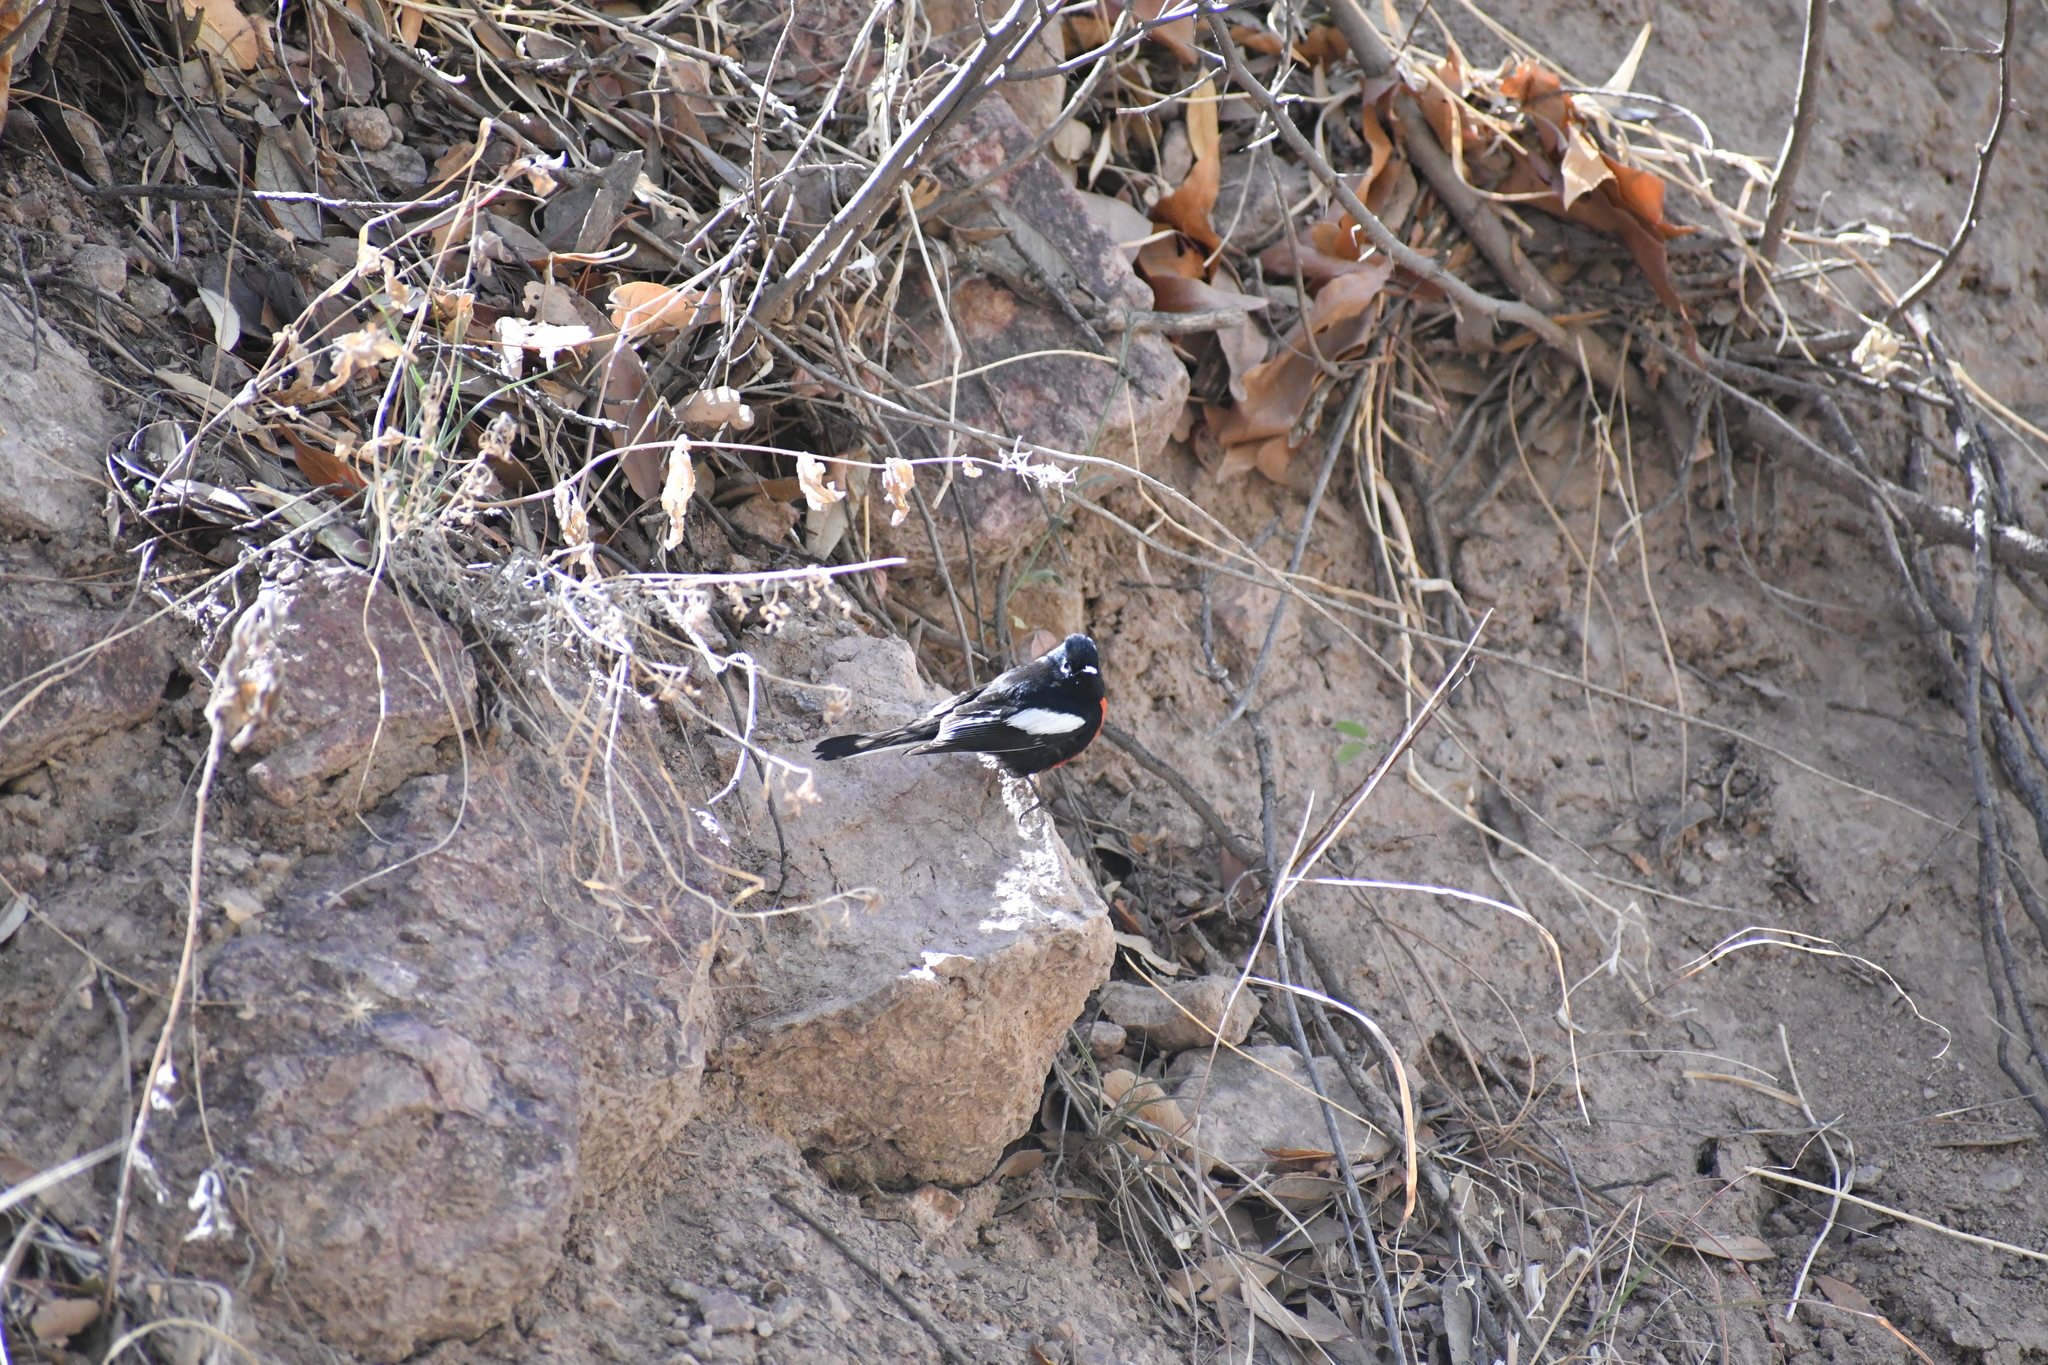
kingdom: Animalia
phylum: Chordata
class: Aves
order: Passeriformes
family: Parulidae
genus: Myioborus
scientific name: Myioborus pictus
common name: Painted whitestart
